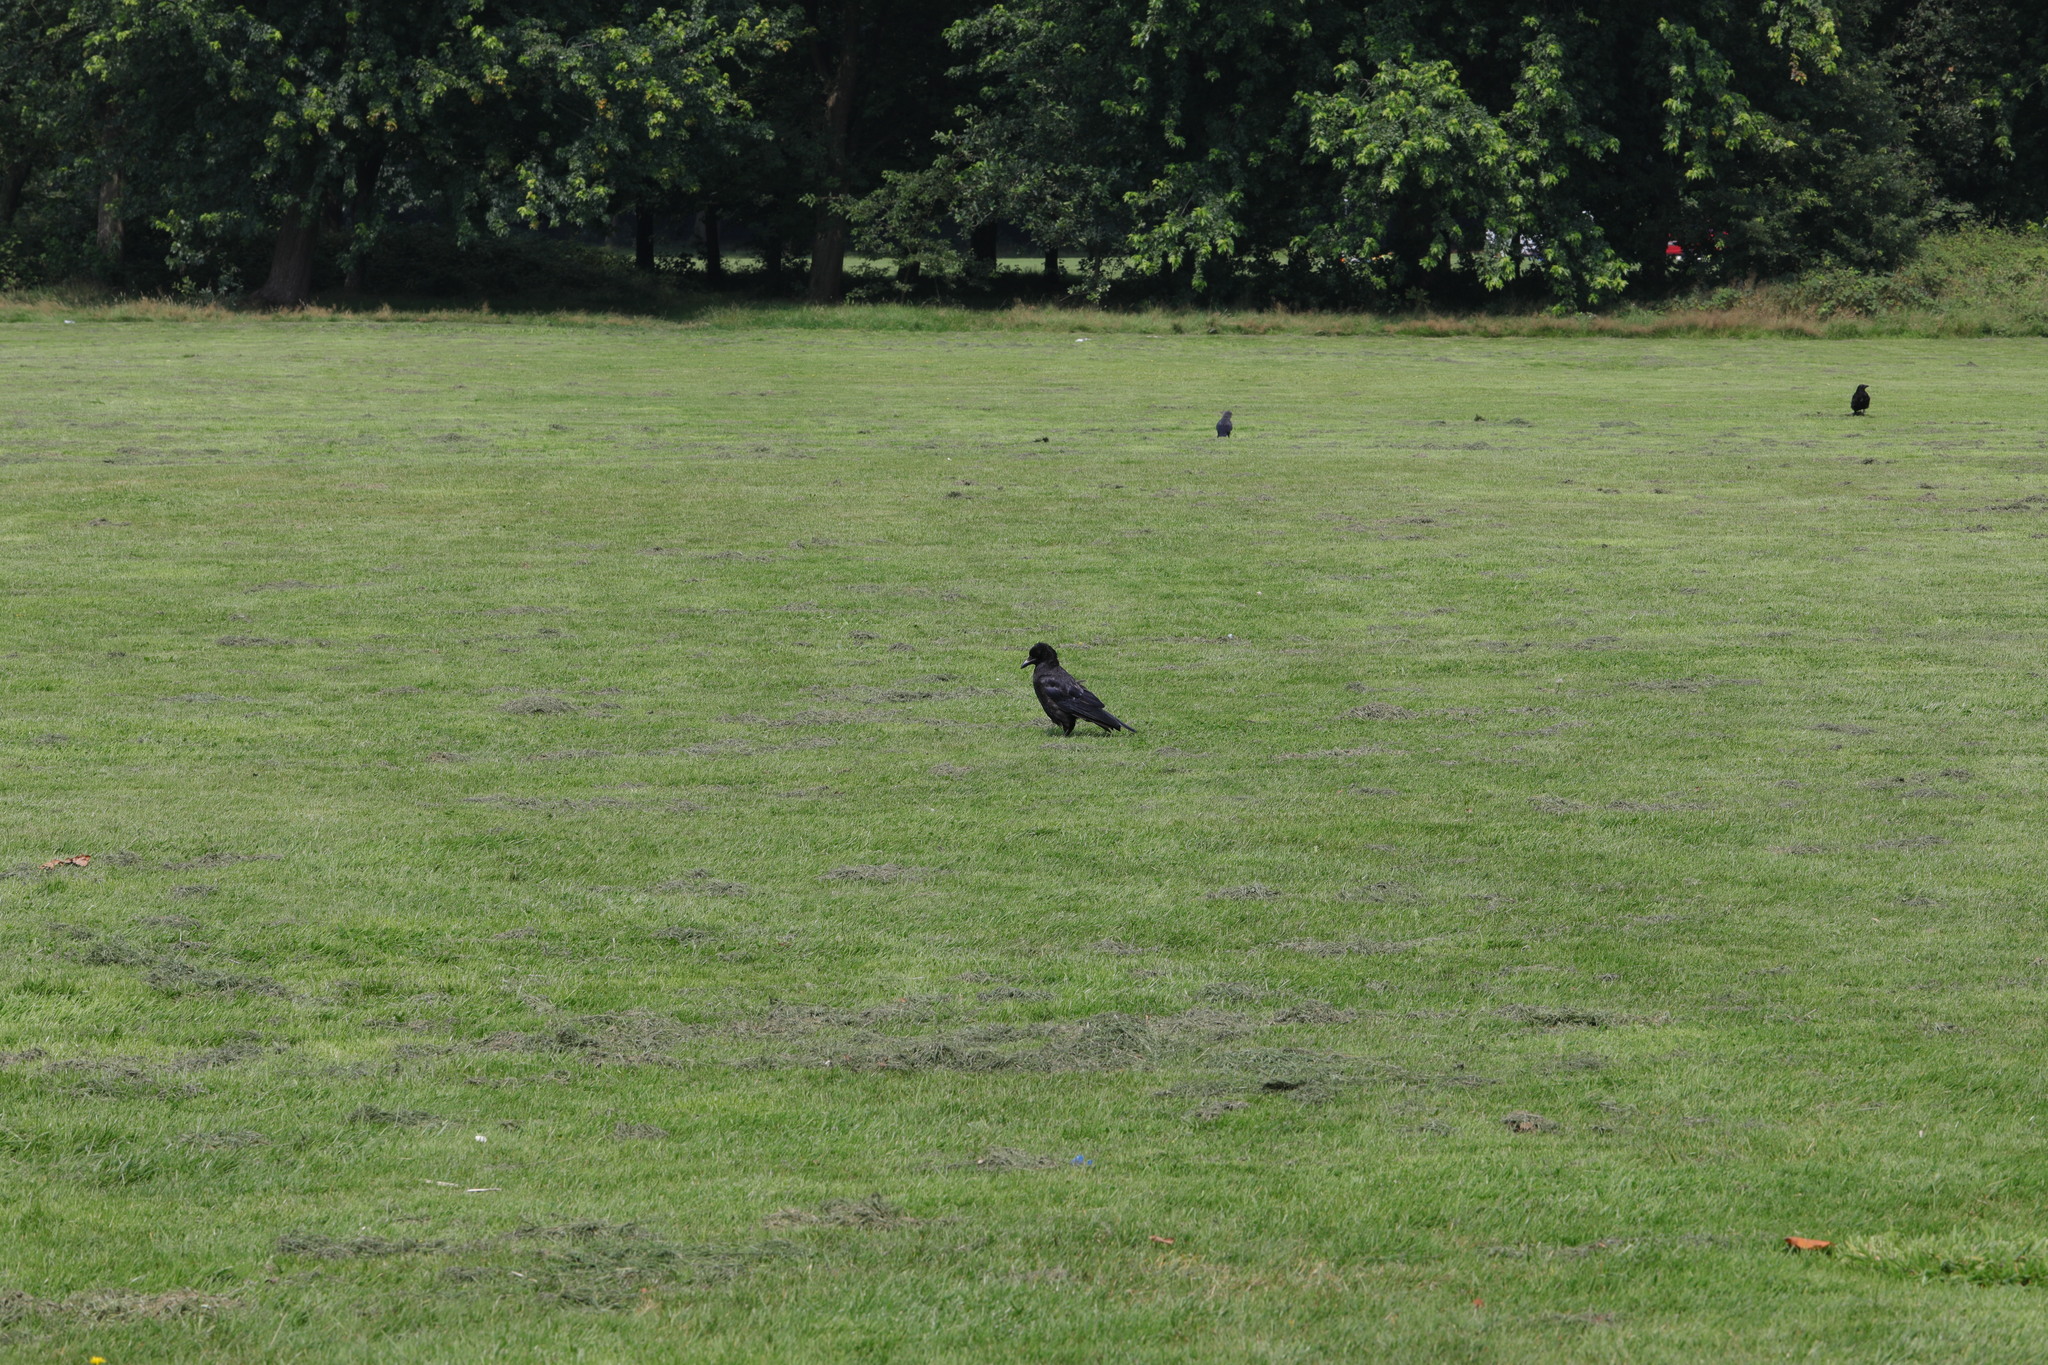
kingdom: Animalia
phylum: Chordata
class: Aves
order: Passeriformes
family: Corvidae
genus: Corvus
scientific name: Corvus corone
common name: Carrion crow
